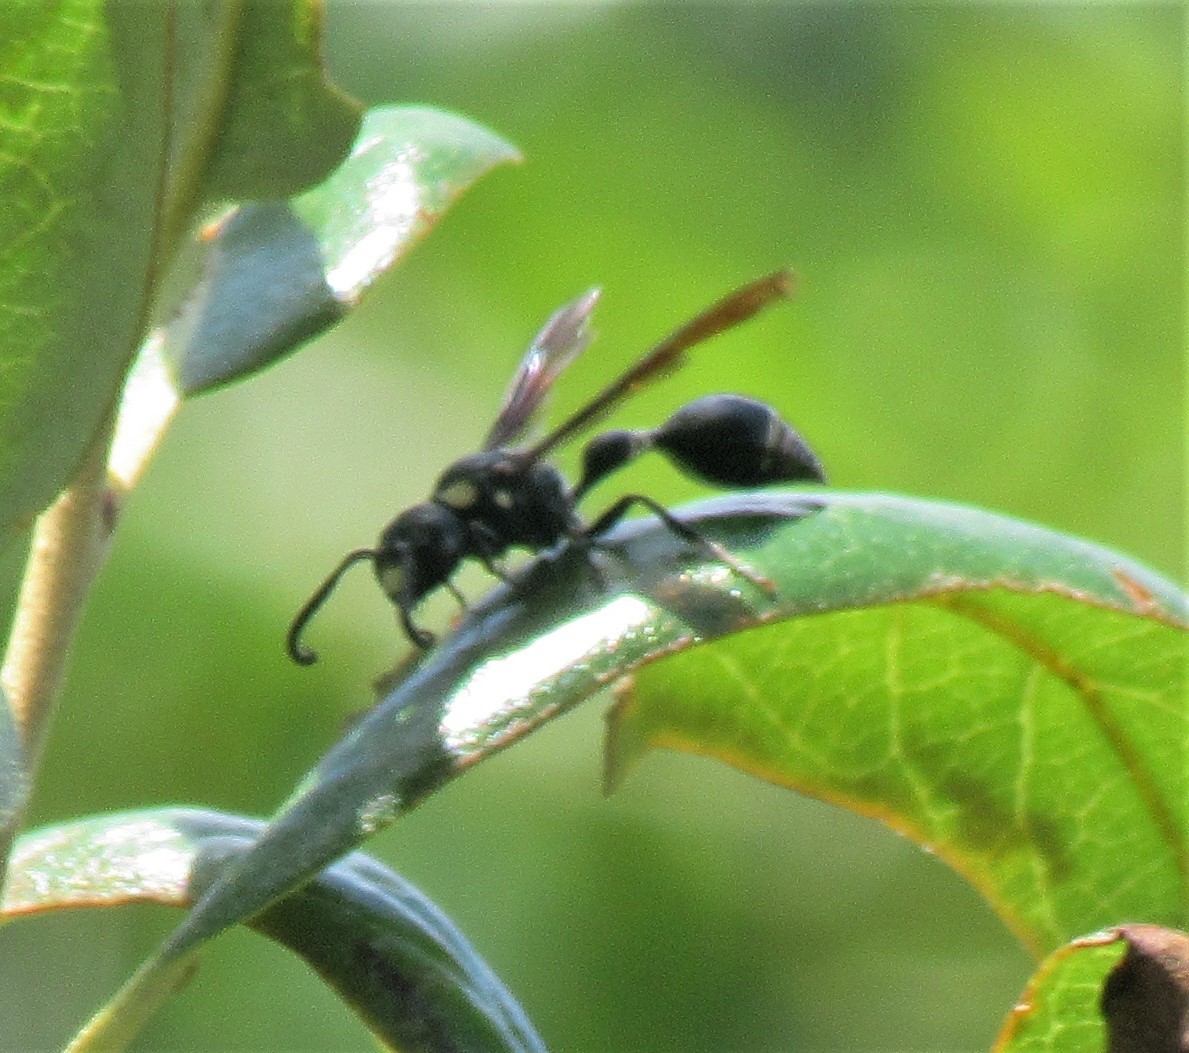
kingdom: Animalia
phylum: Arthropoda
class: Insecta
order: Hymenoptera
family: Eumenidae
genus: Zethus
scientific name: Zethus spinipes
